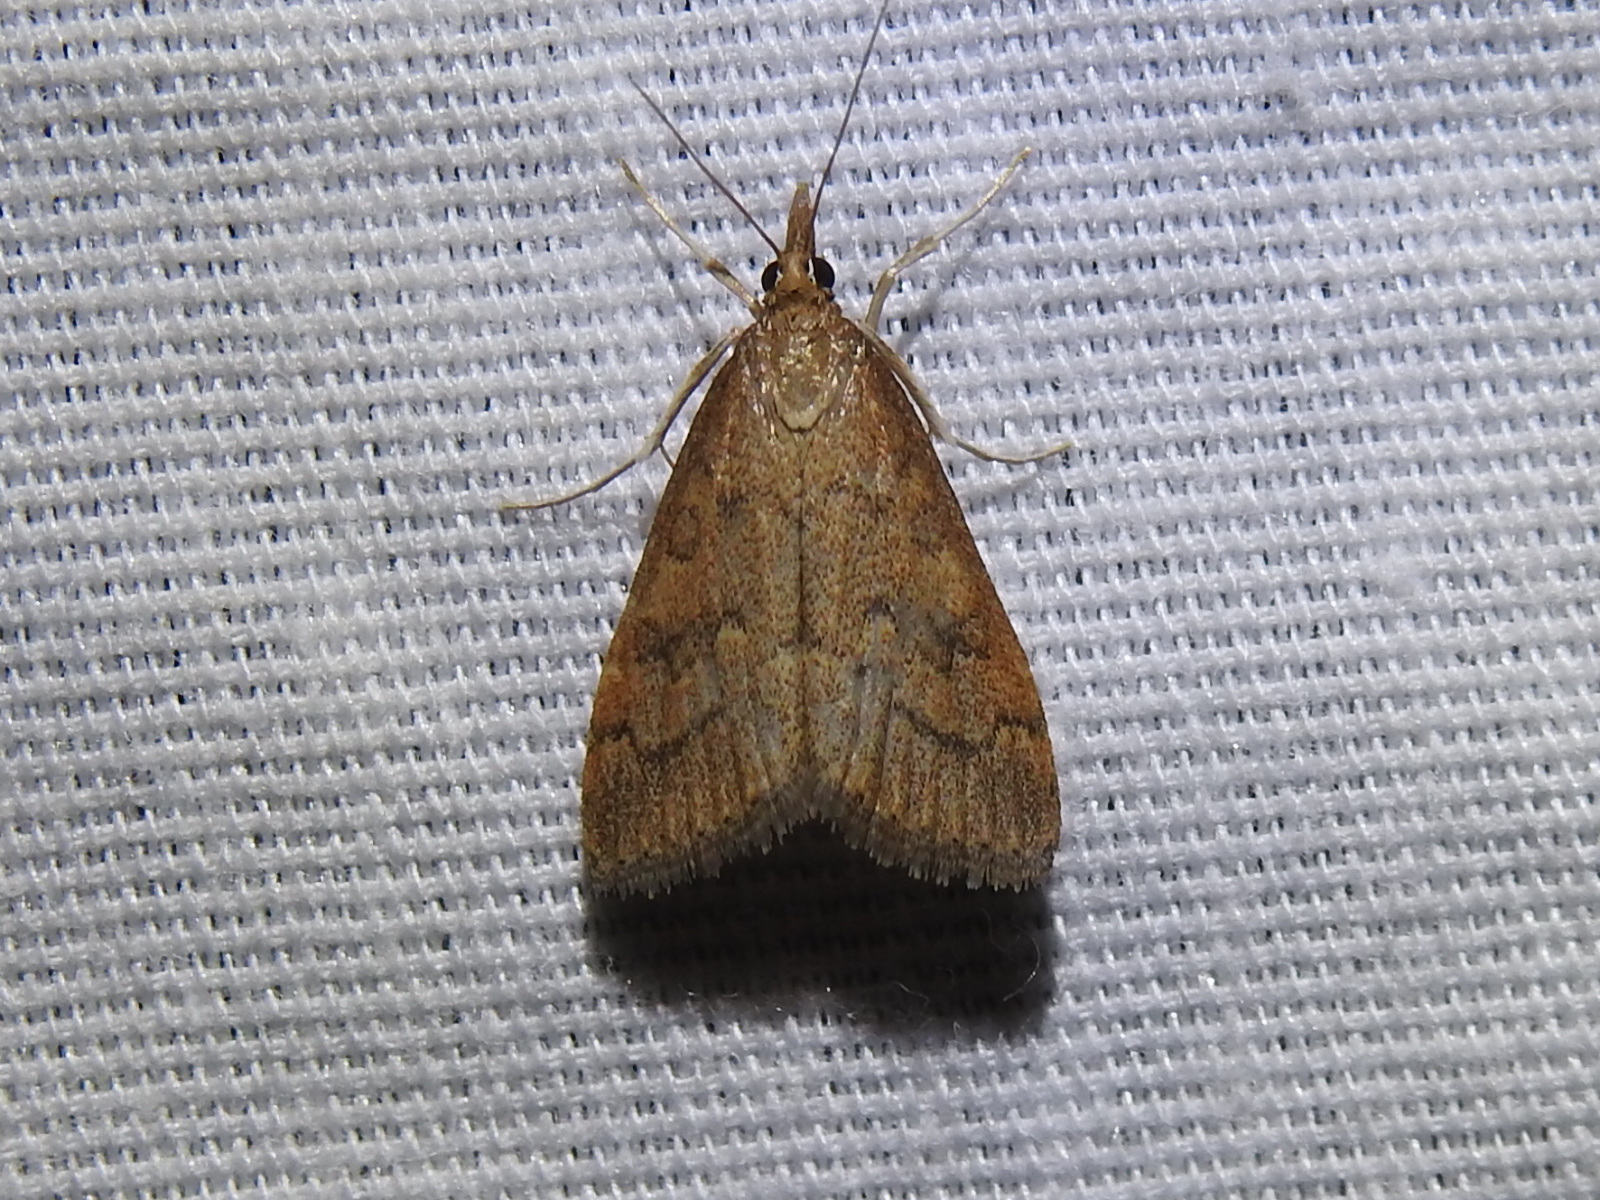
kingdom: Animalia
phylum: Arthropoda
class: Insecta
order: Lepidoptera
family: Crambidae
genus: Udea
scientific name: Udea rubigalis
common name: Celery leaftier moth
